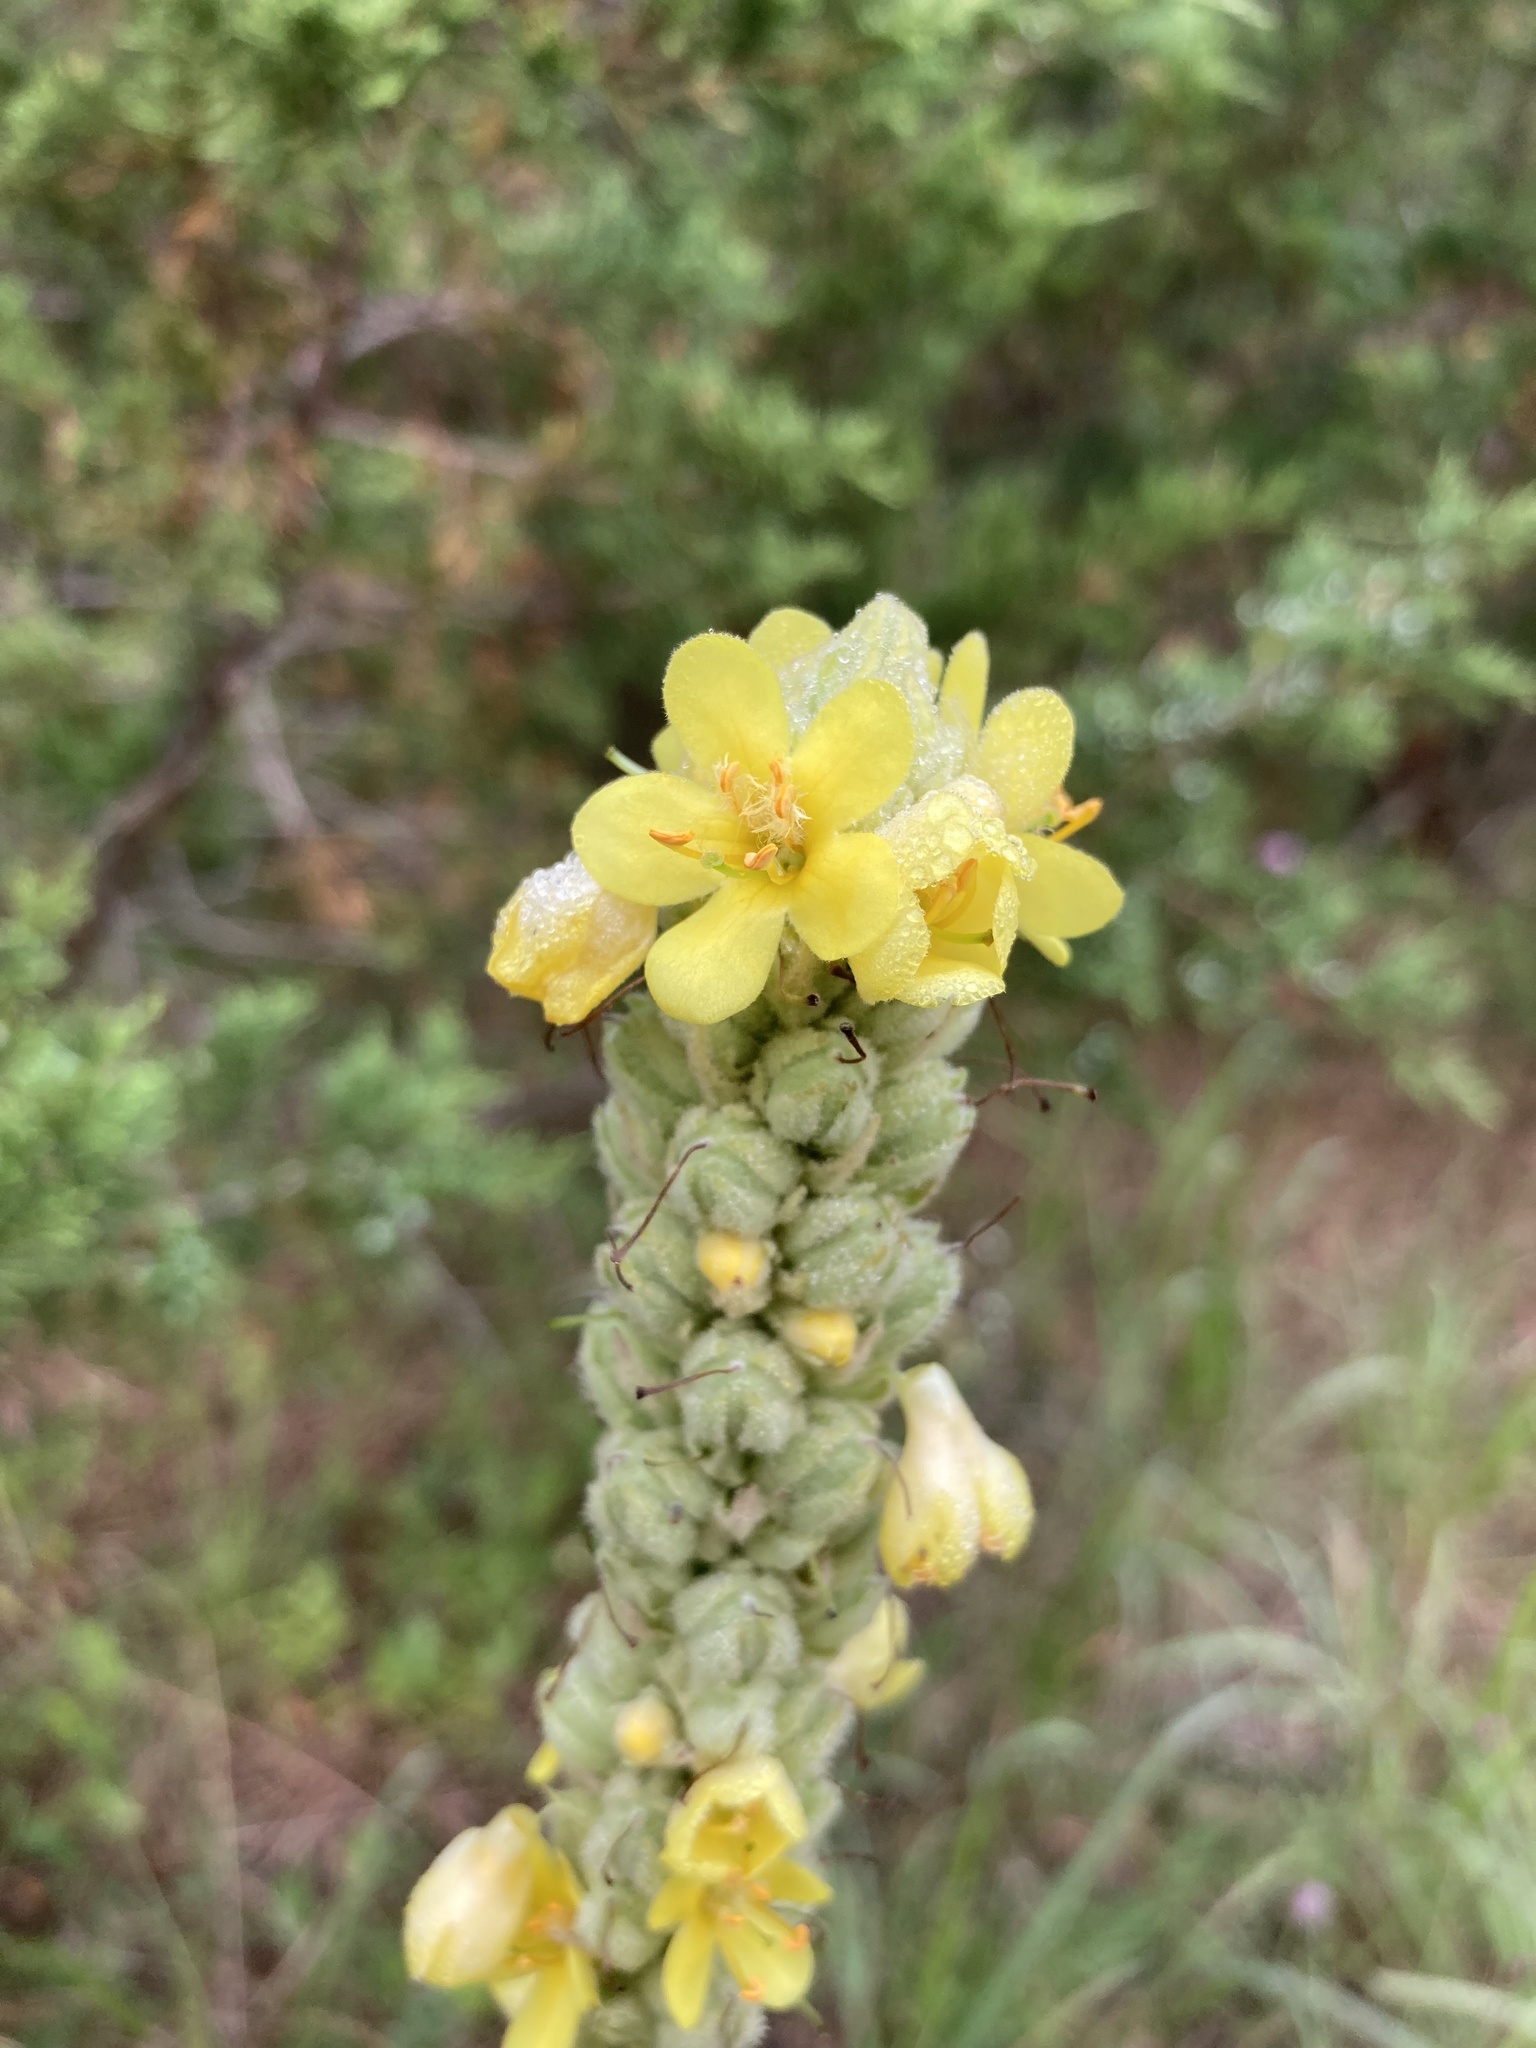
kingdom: Plantae
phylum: Tracheophyta
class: Magnoliopsida
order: Lamiales
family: Scrophulariaceae
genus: Verbascum
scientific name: Verbascum thapsus
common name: Common mullein
